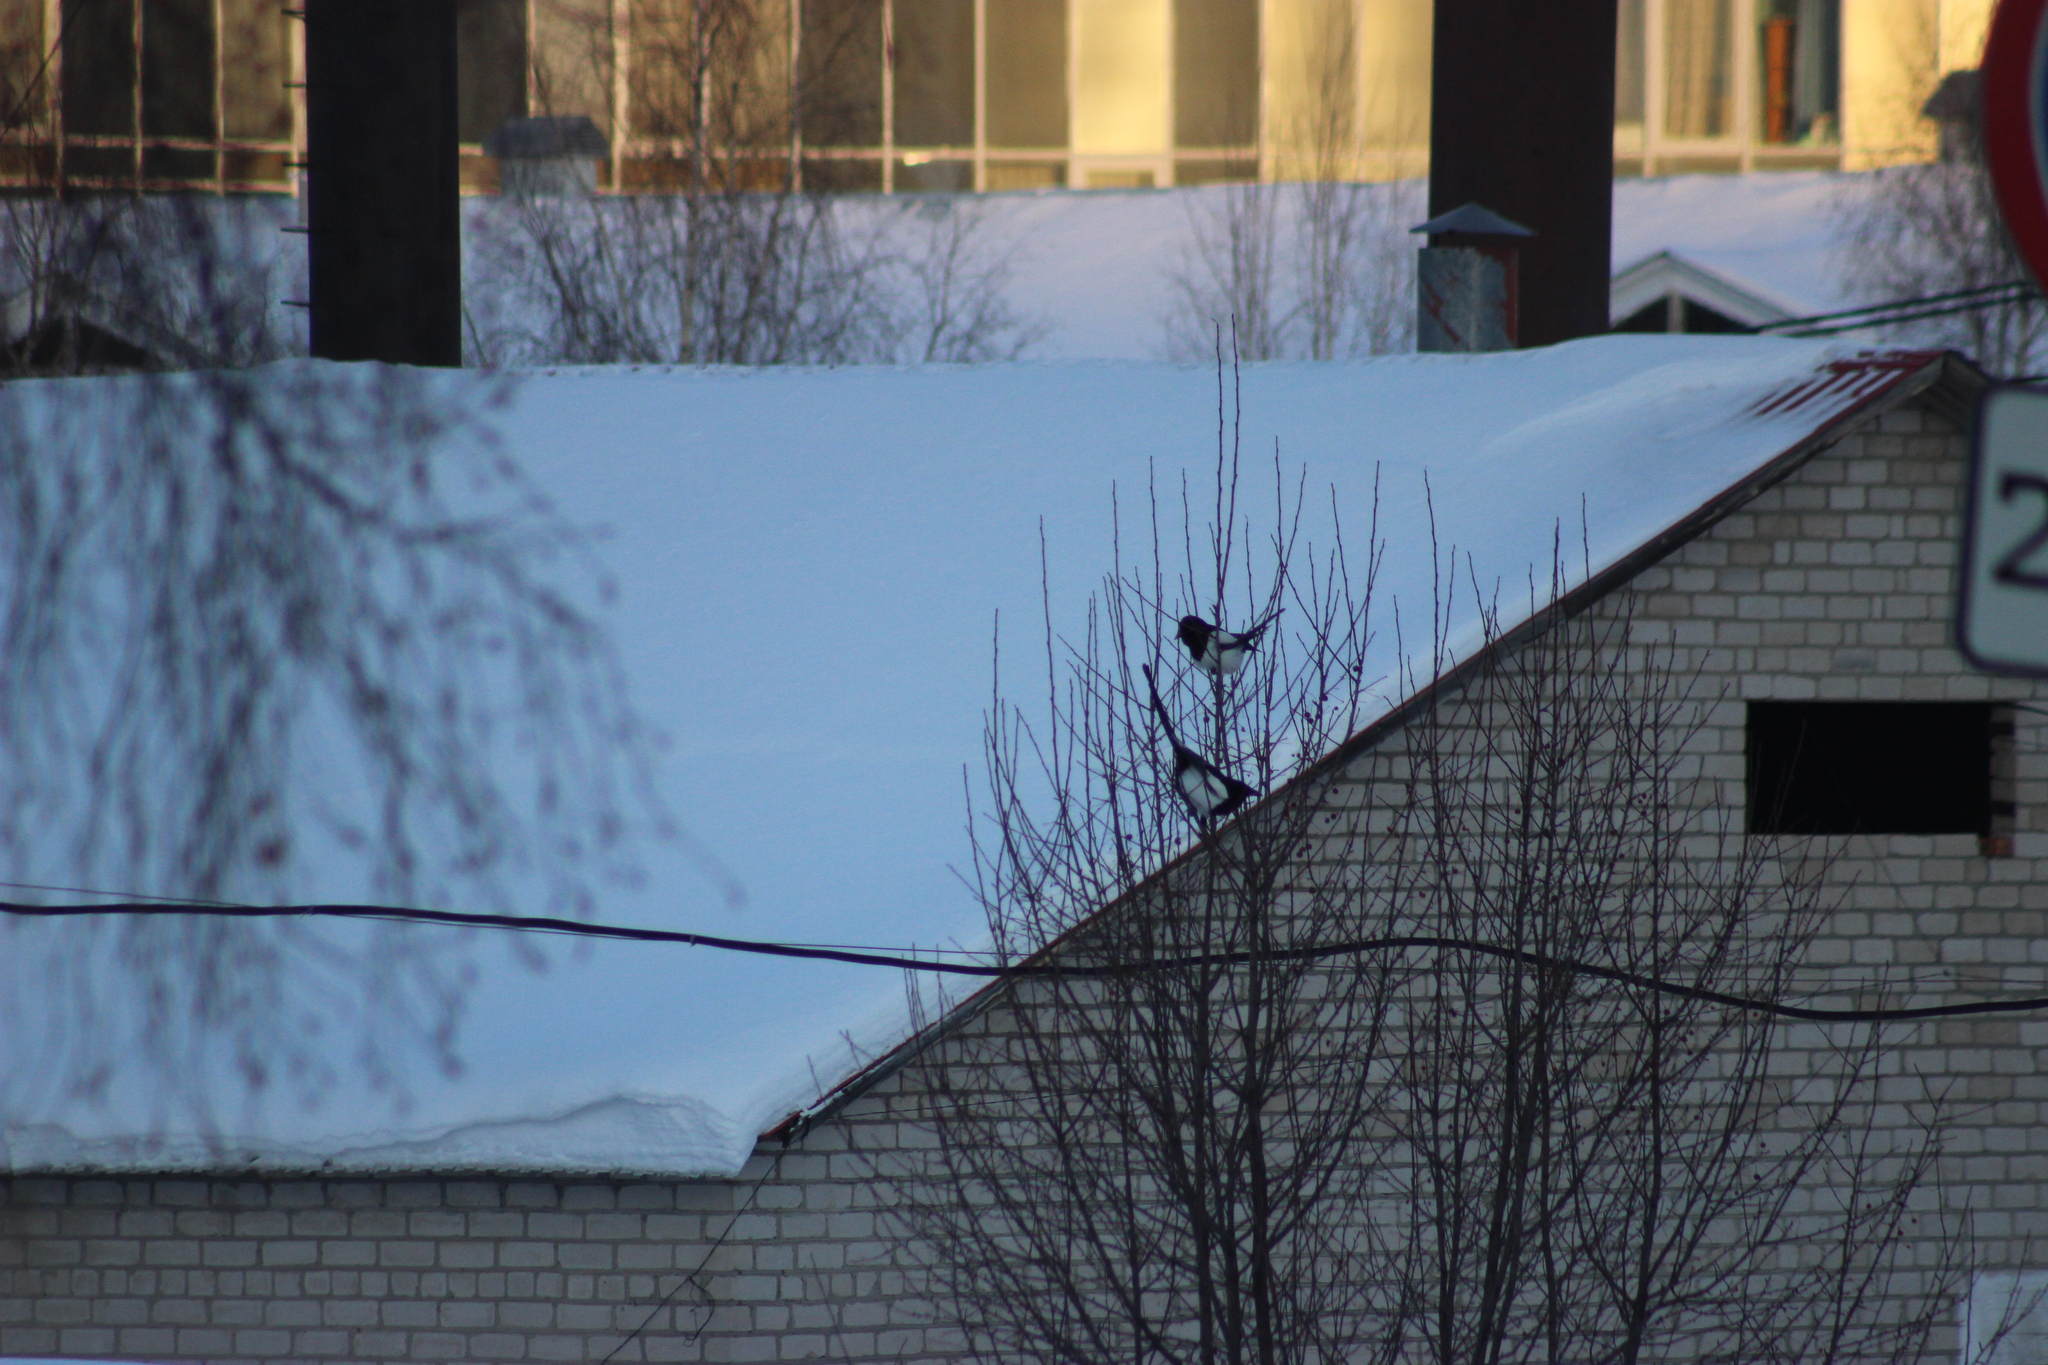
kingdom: Animalia
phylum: Chordata
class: Aves
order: Passeriformes
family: Corvidae
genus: Pica
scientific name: Pica pica
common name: Eurasian magpie
